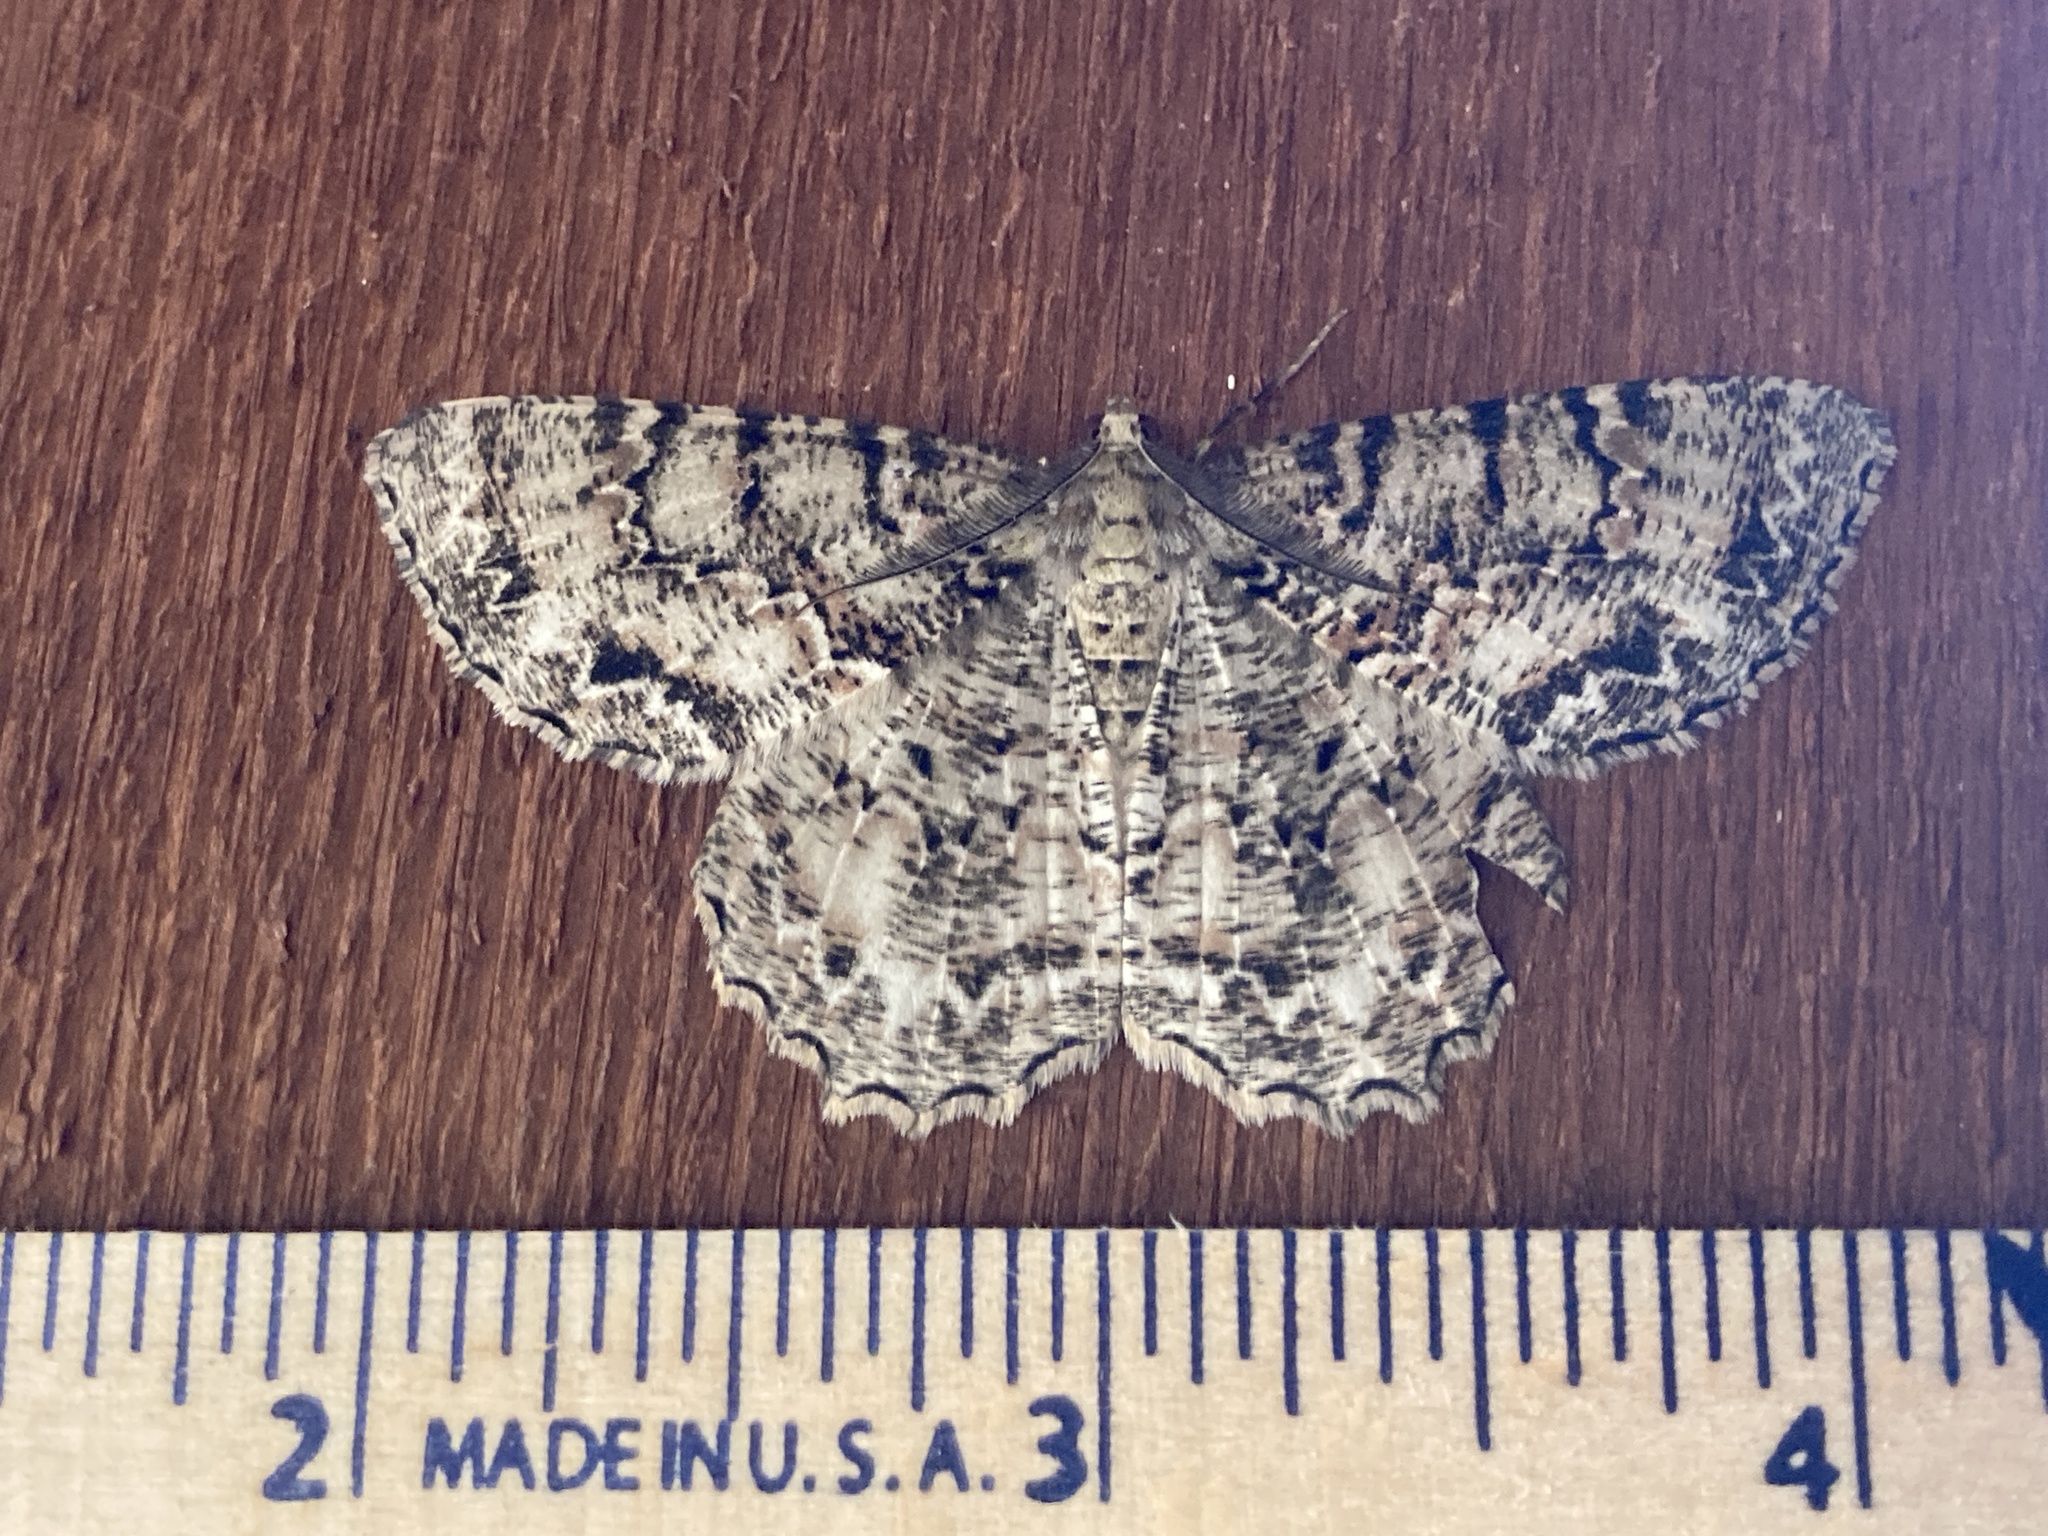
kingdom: Animalia
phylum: Arthropoda
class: Insecta
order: Lepidoptera
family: Geometridae
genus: Epimecis
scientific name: Epimecis hortaria
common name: Tulip-tree beauty
